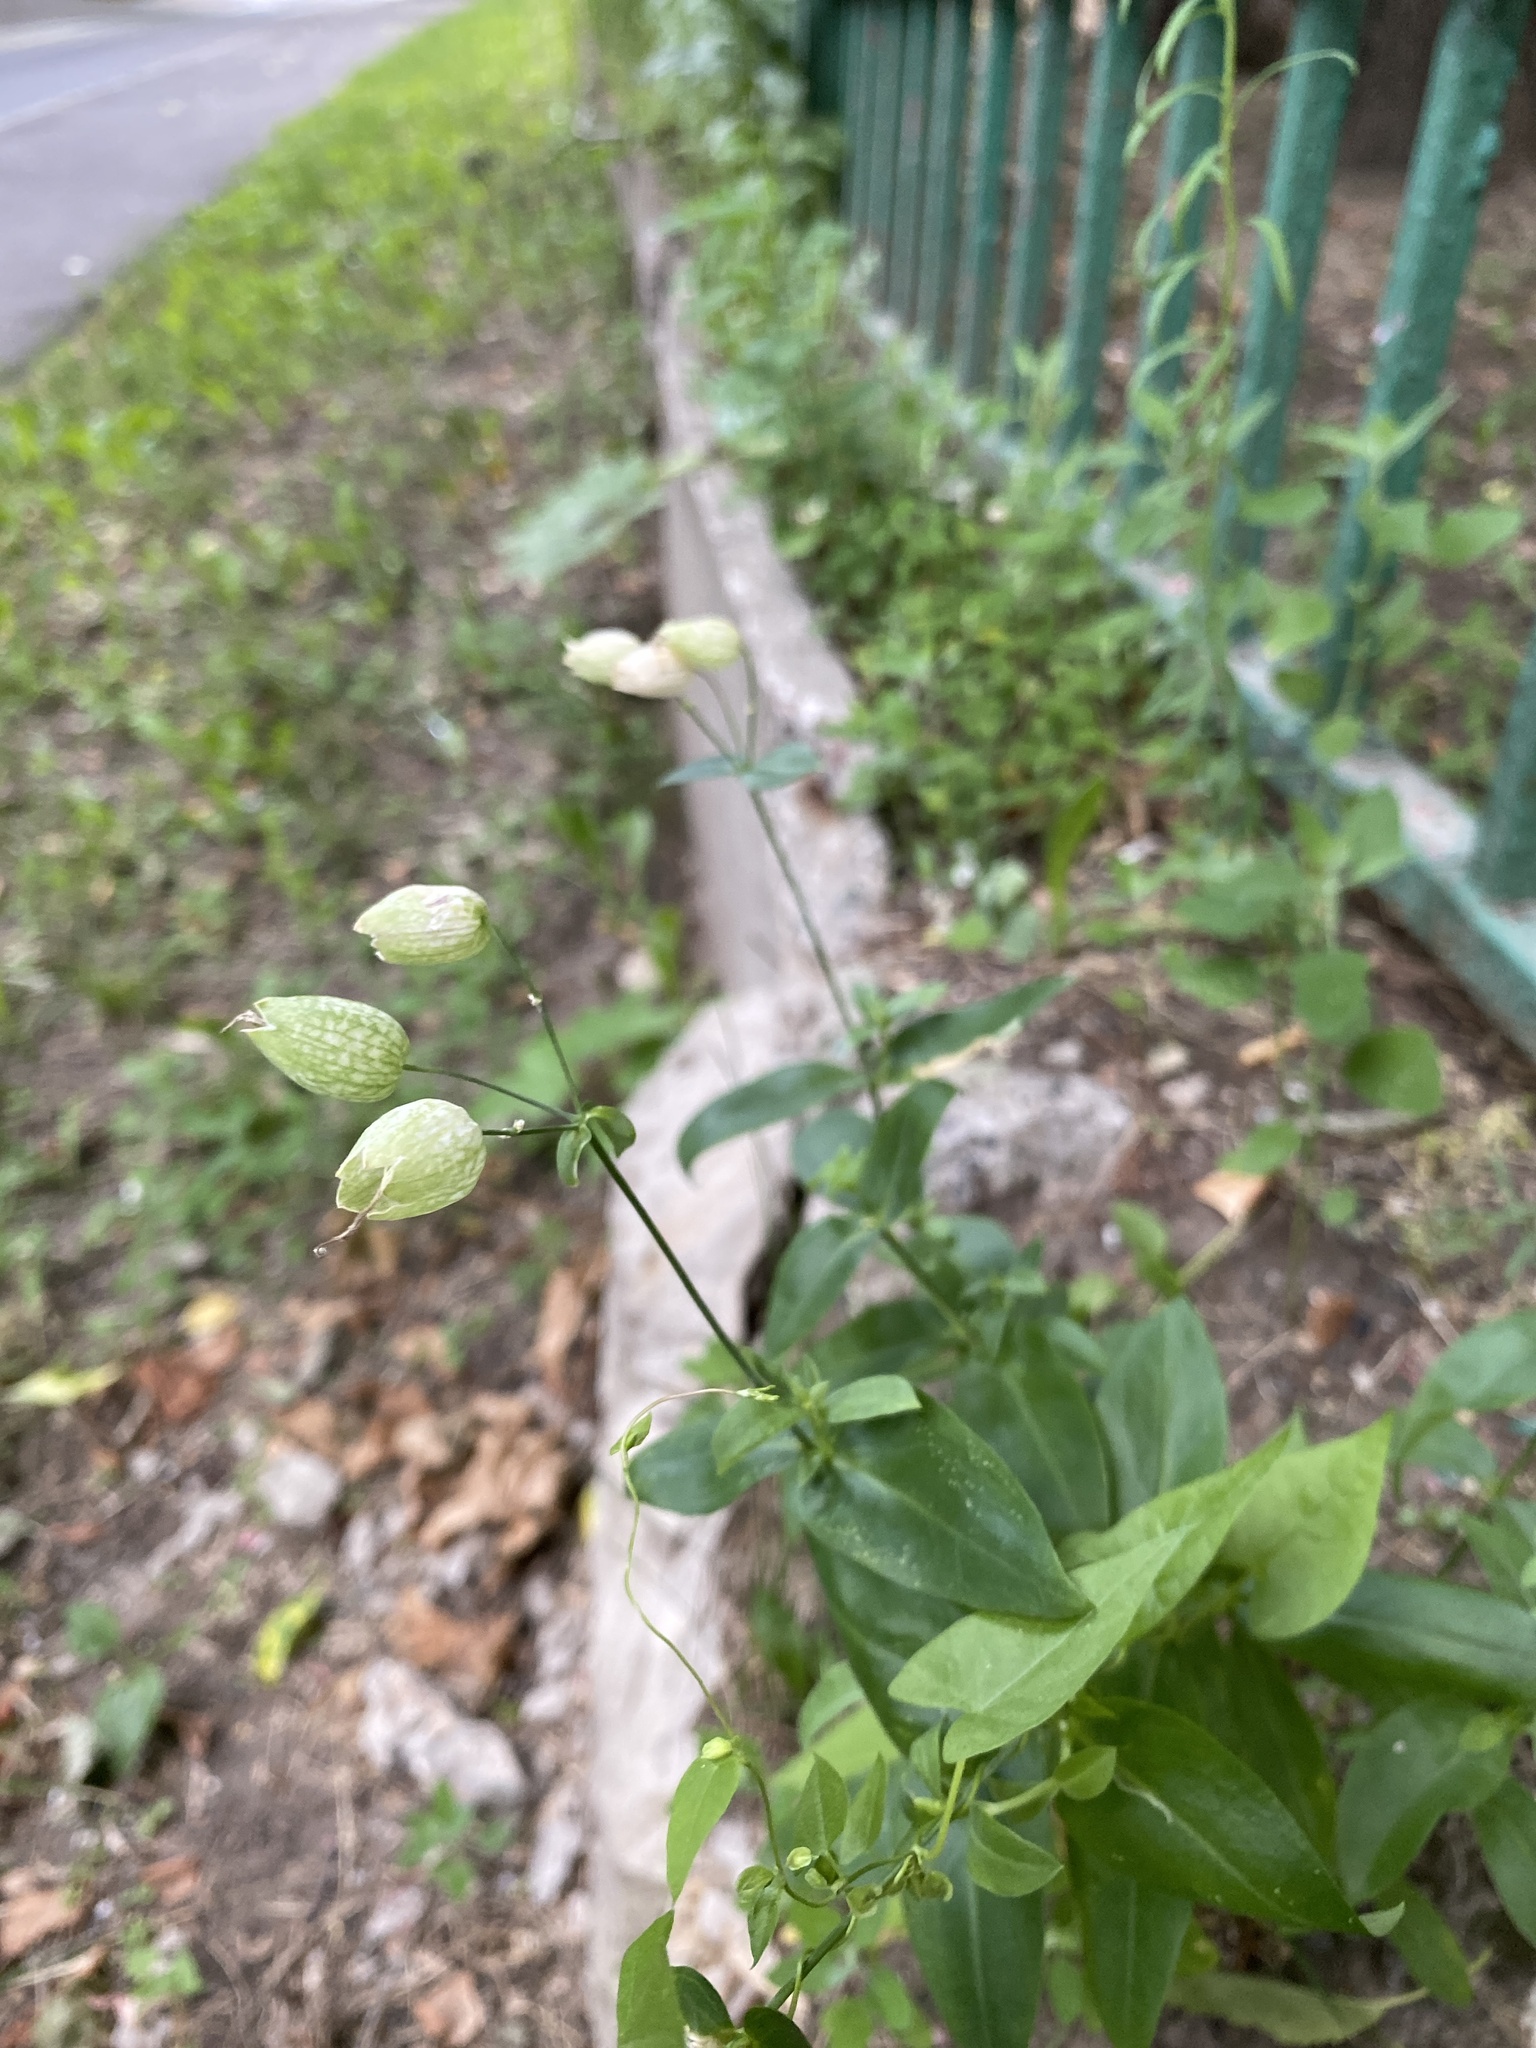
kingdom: Plantae
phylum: Tracheophyta
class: Magnoliopsida
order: Caryophyllales
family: Caryophyllaceae
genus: Silene
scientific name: Silene vulgaris
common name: Bladder campion
